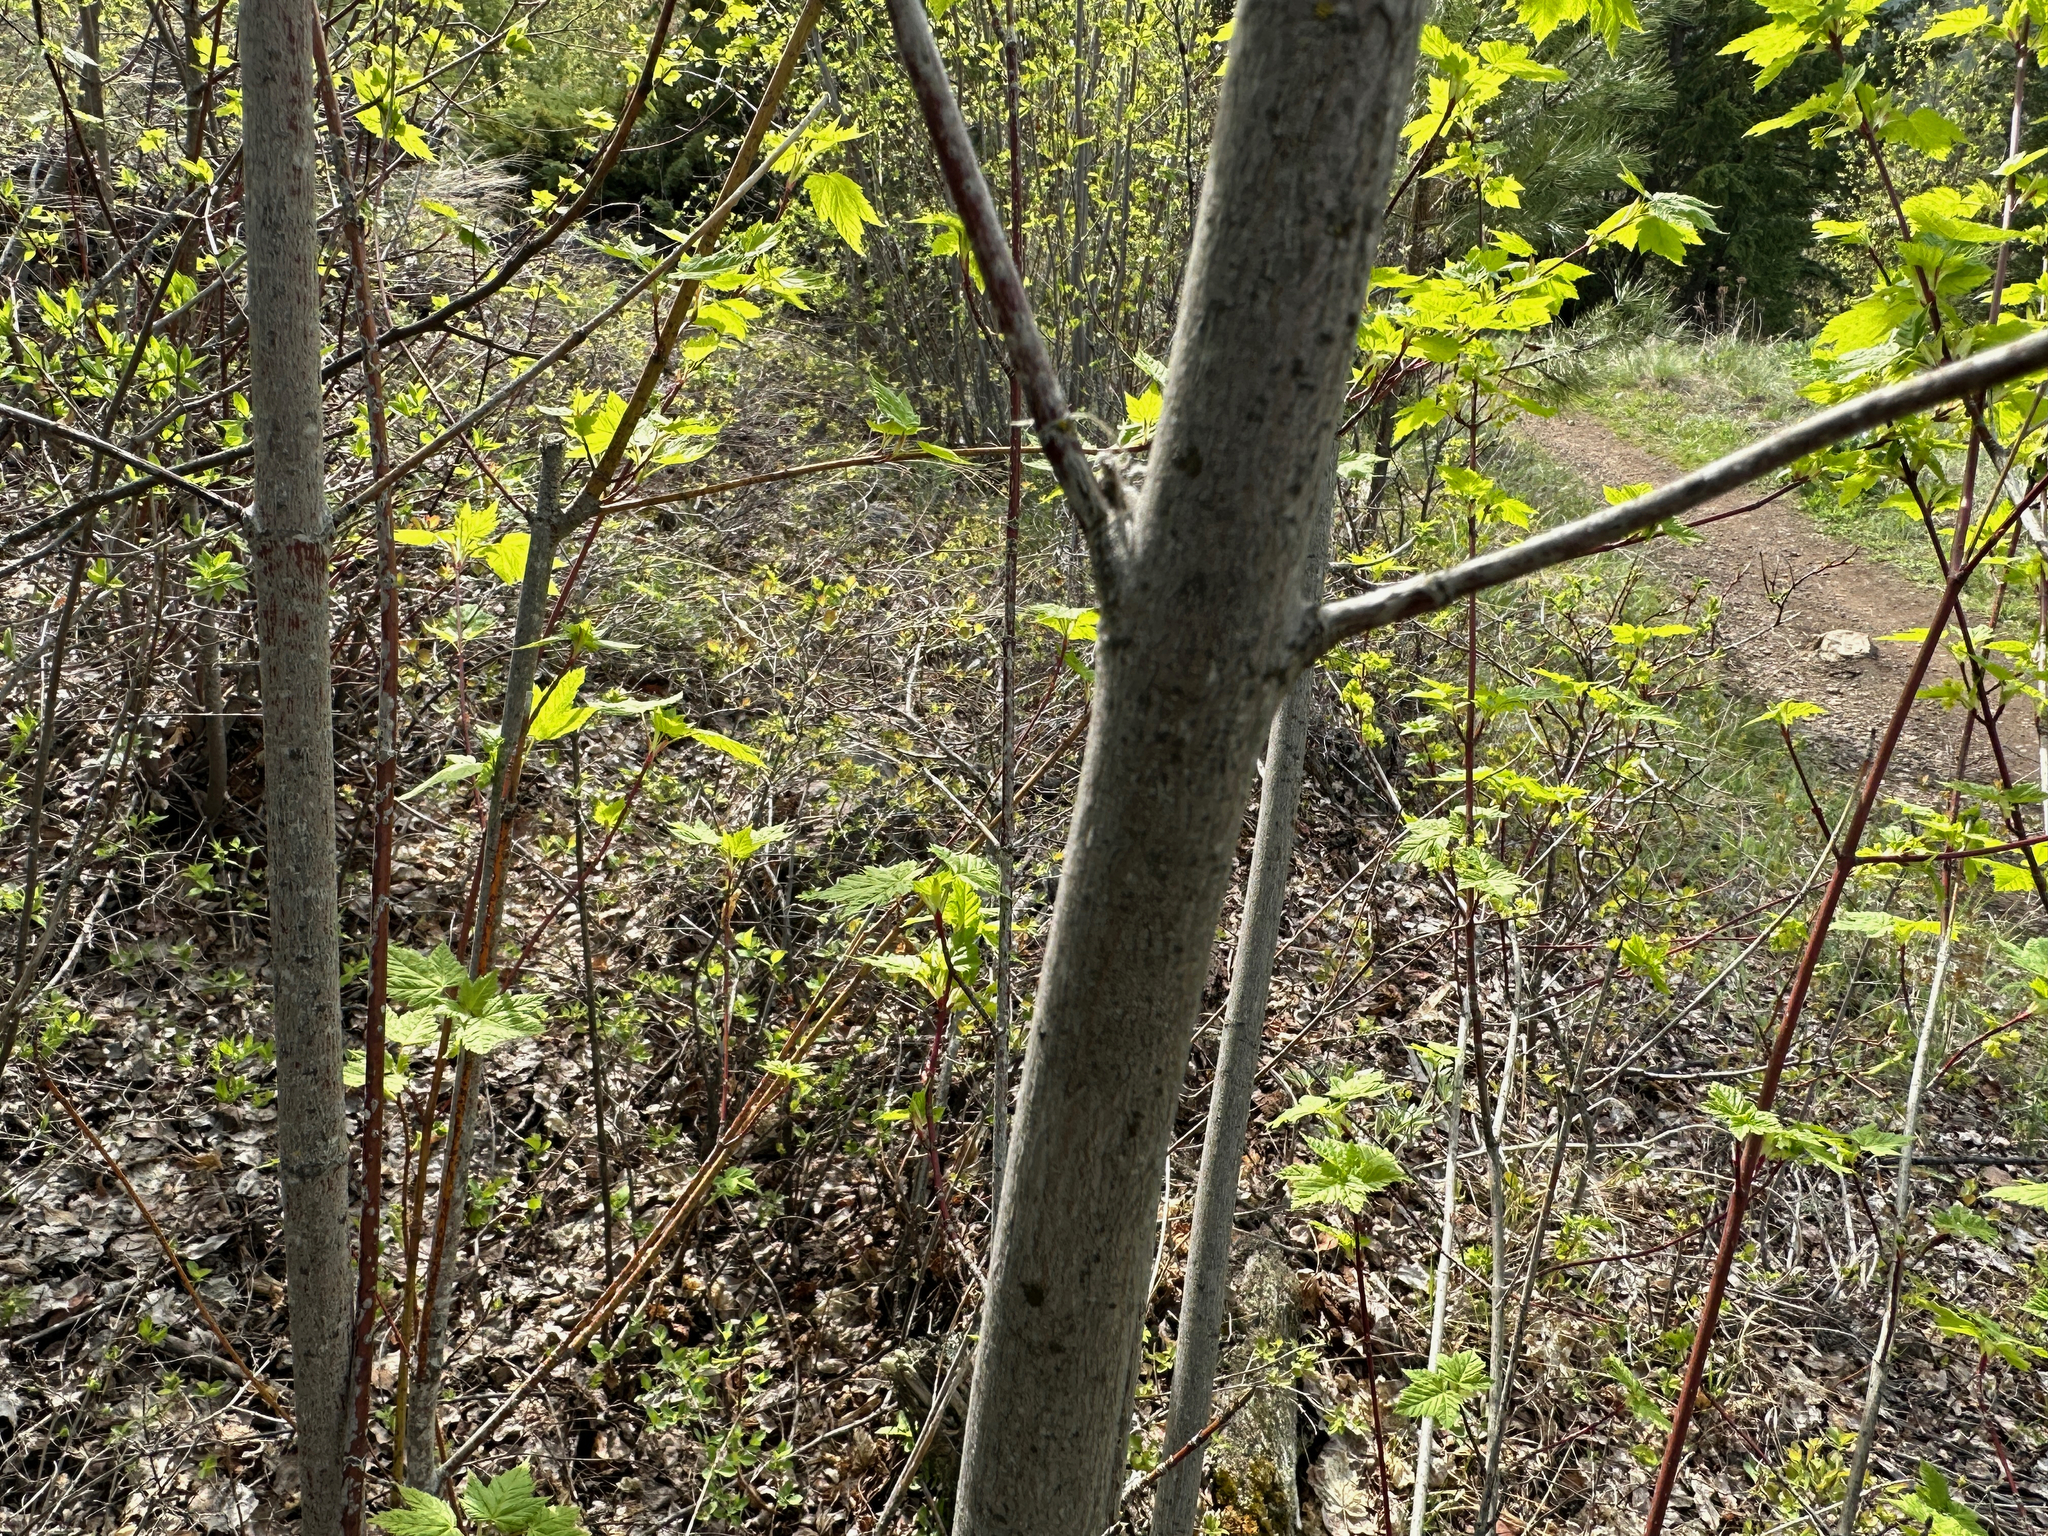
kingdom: Plantae
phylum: Tracheophyta
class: Magnoliopsida
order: Sapindales
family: Sapindaceae
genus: Acer
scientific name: Acer glabrum
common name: Rocky mountain maple
